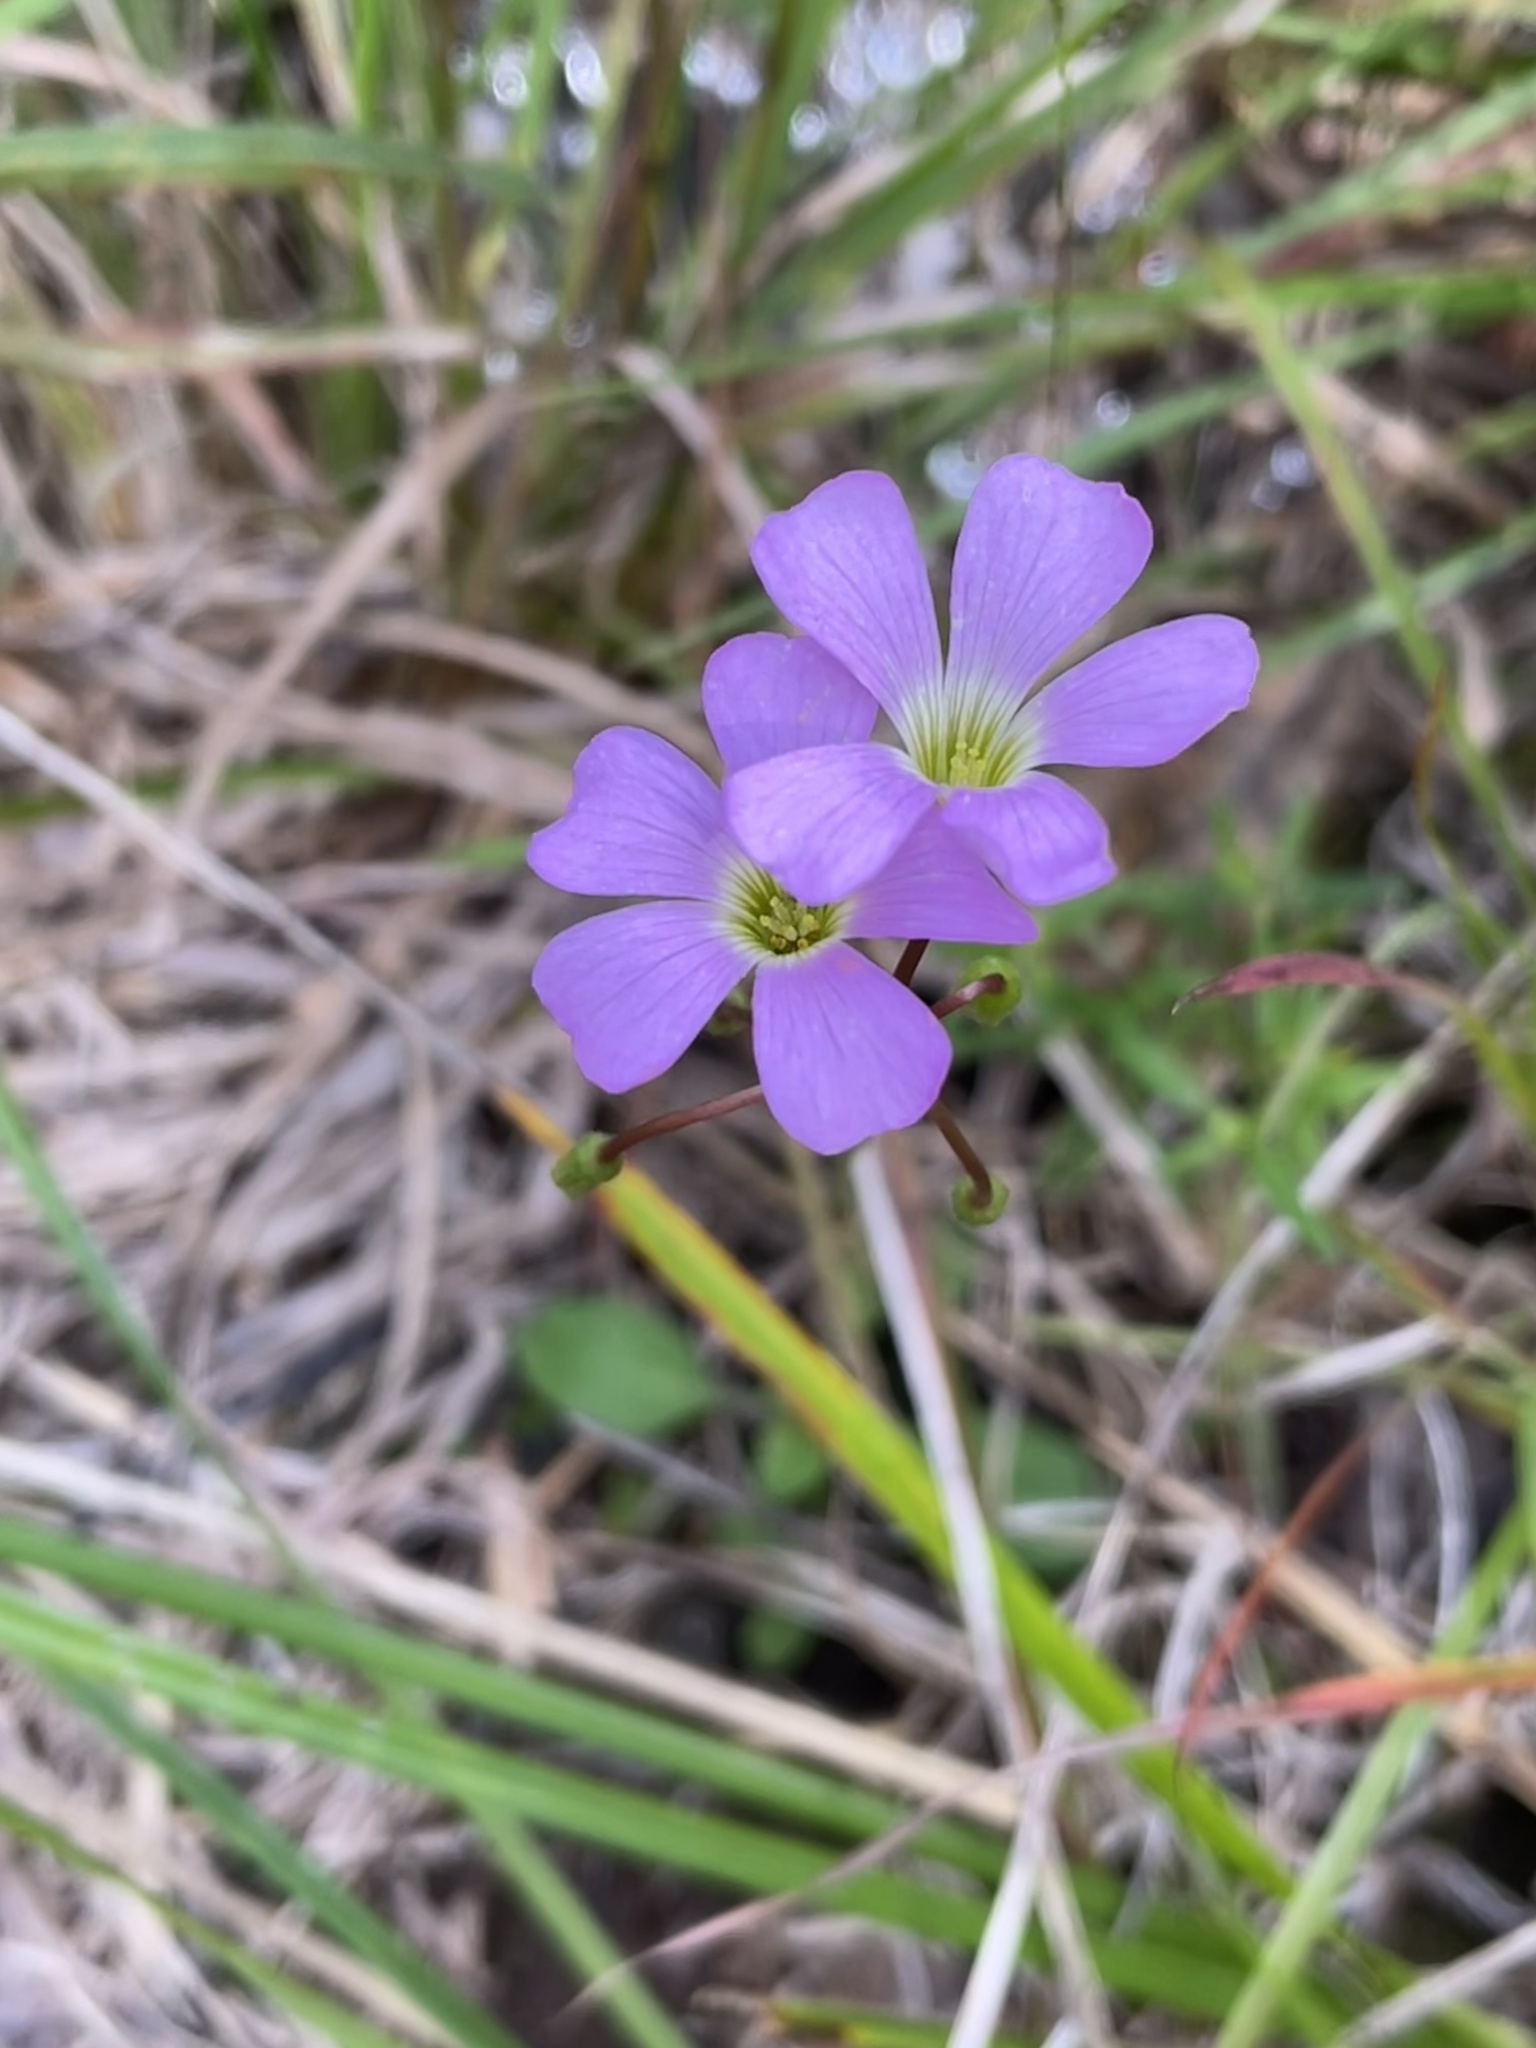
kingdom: Plantae
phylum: Tracheophyta
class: Magnoliopsida
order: Oxalidales
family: Oxalidaceae
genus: Oxalis
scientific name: Oxalis violacea
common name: Violet wood-sorrel
